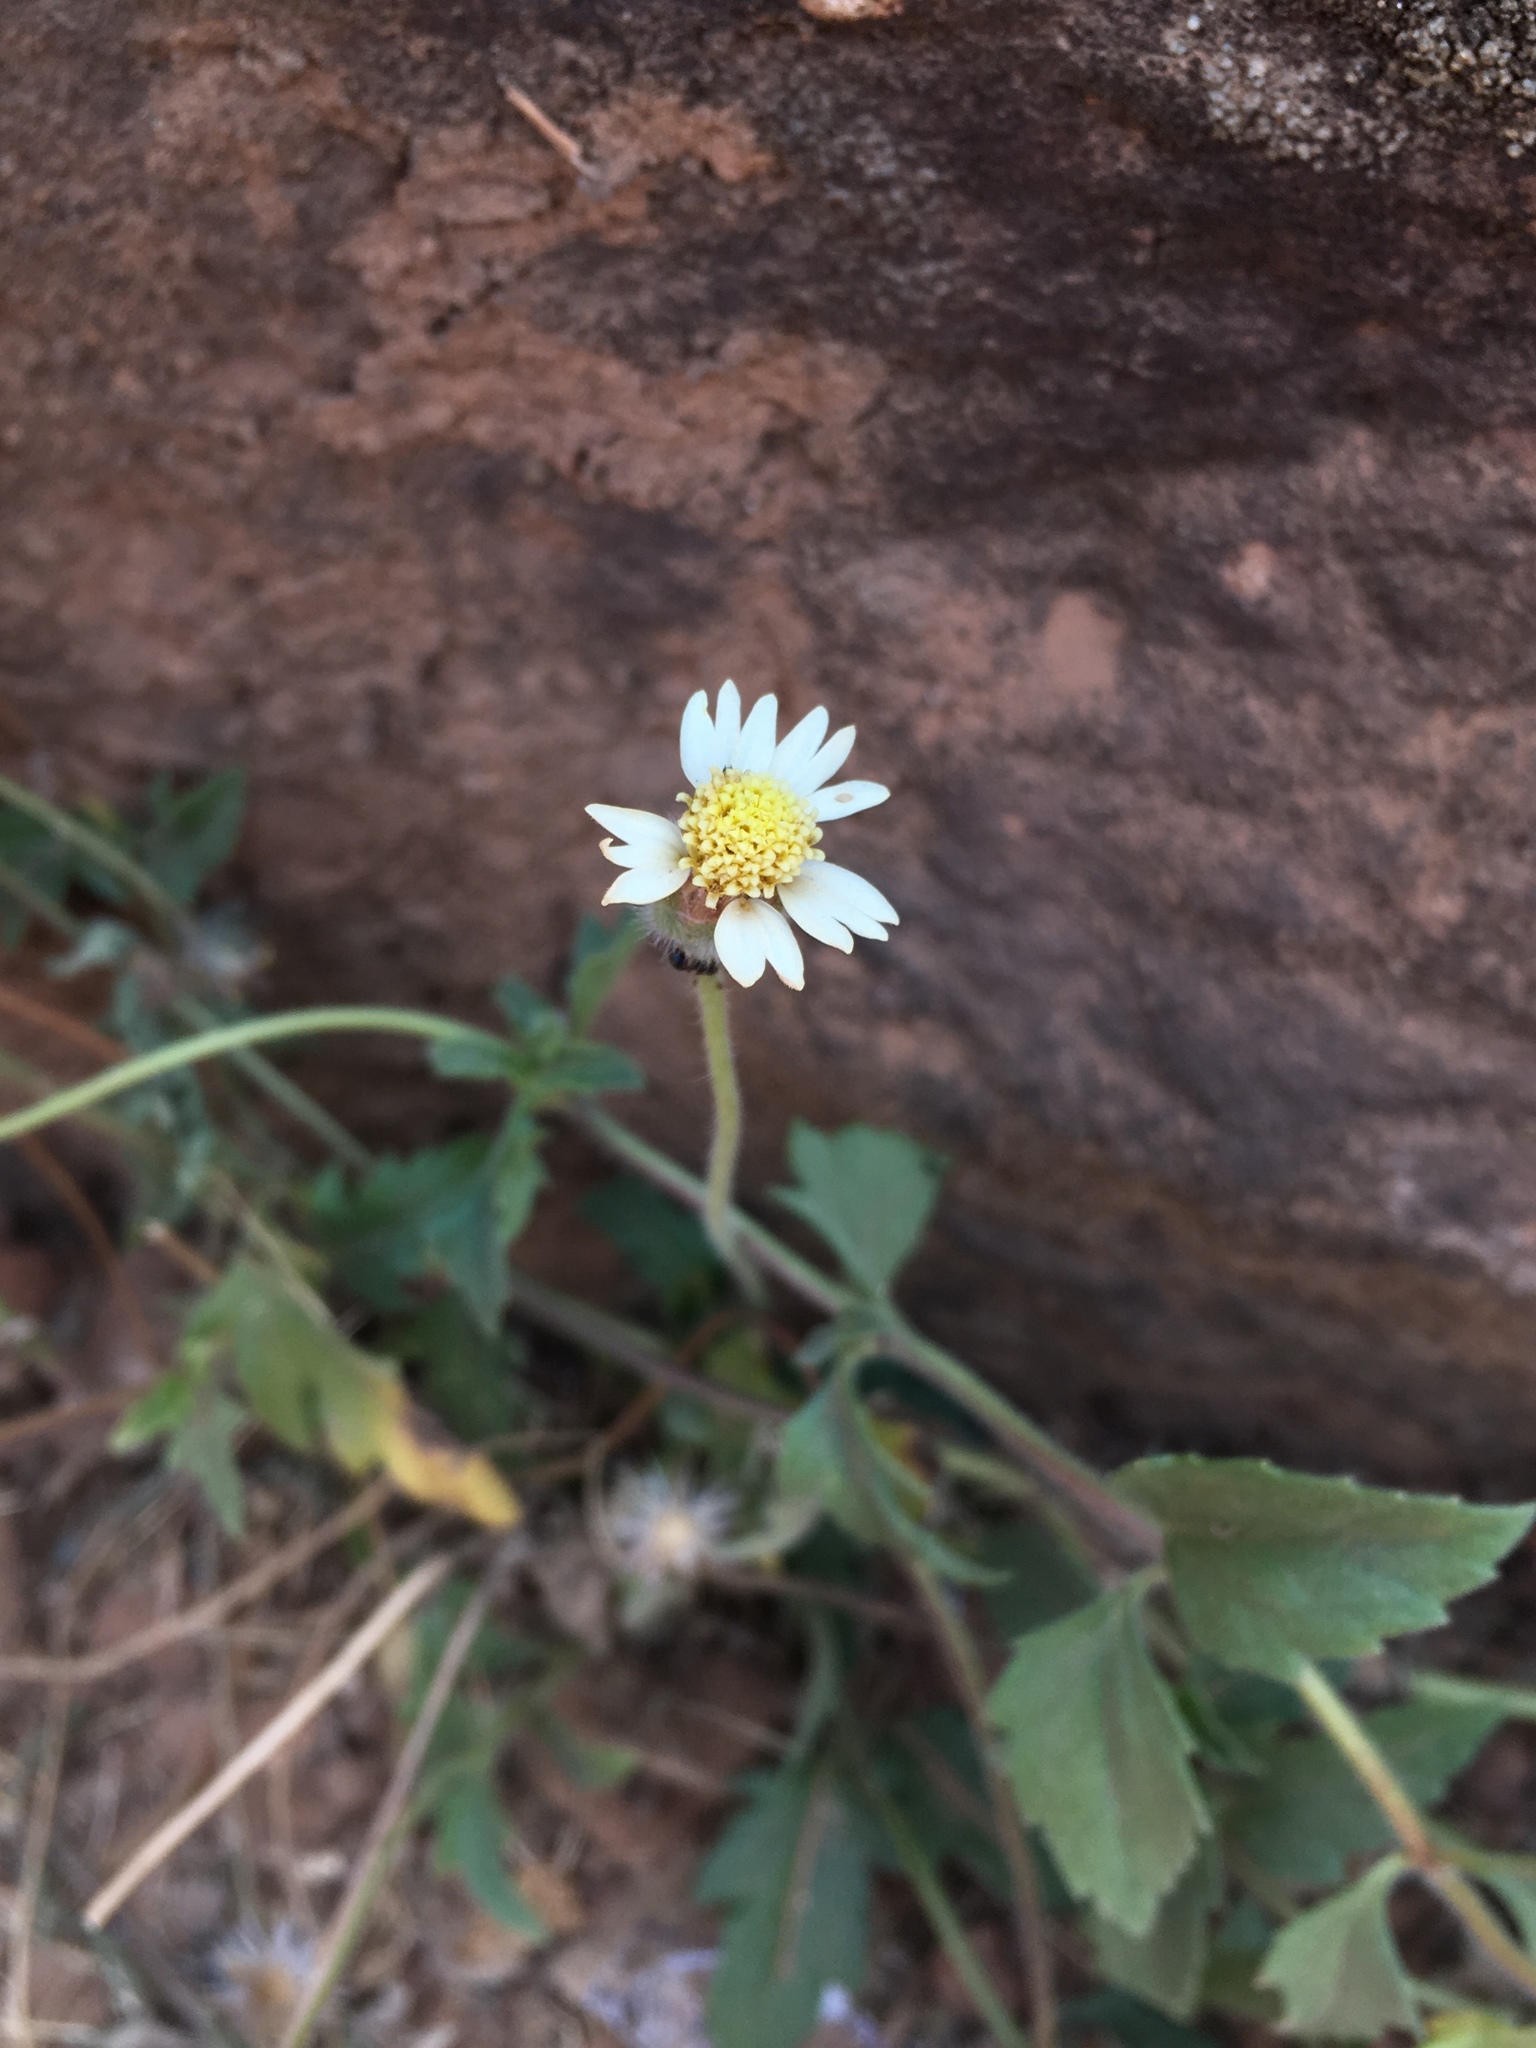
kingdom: Plantae
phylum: Tracheophyta
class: Magnoliopsida
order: Asterales
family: Asteraceae
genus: Tridax
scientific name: Tridax procumbens
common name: Coatbuttons
